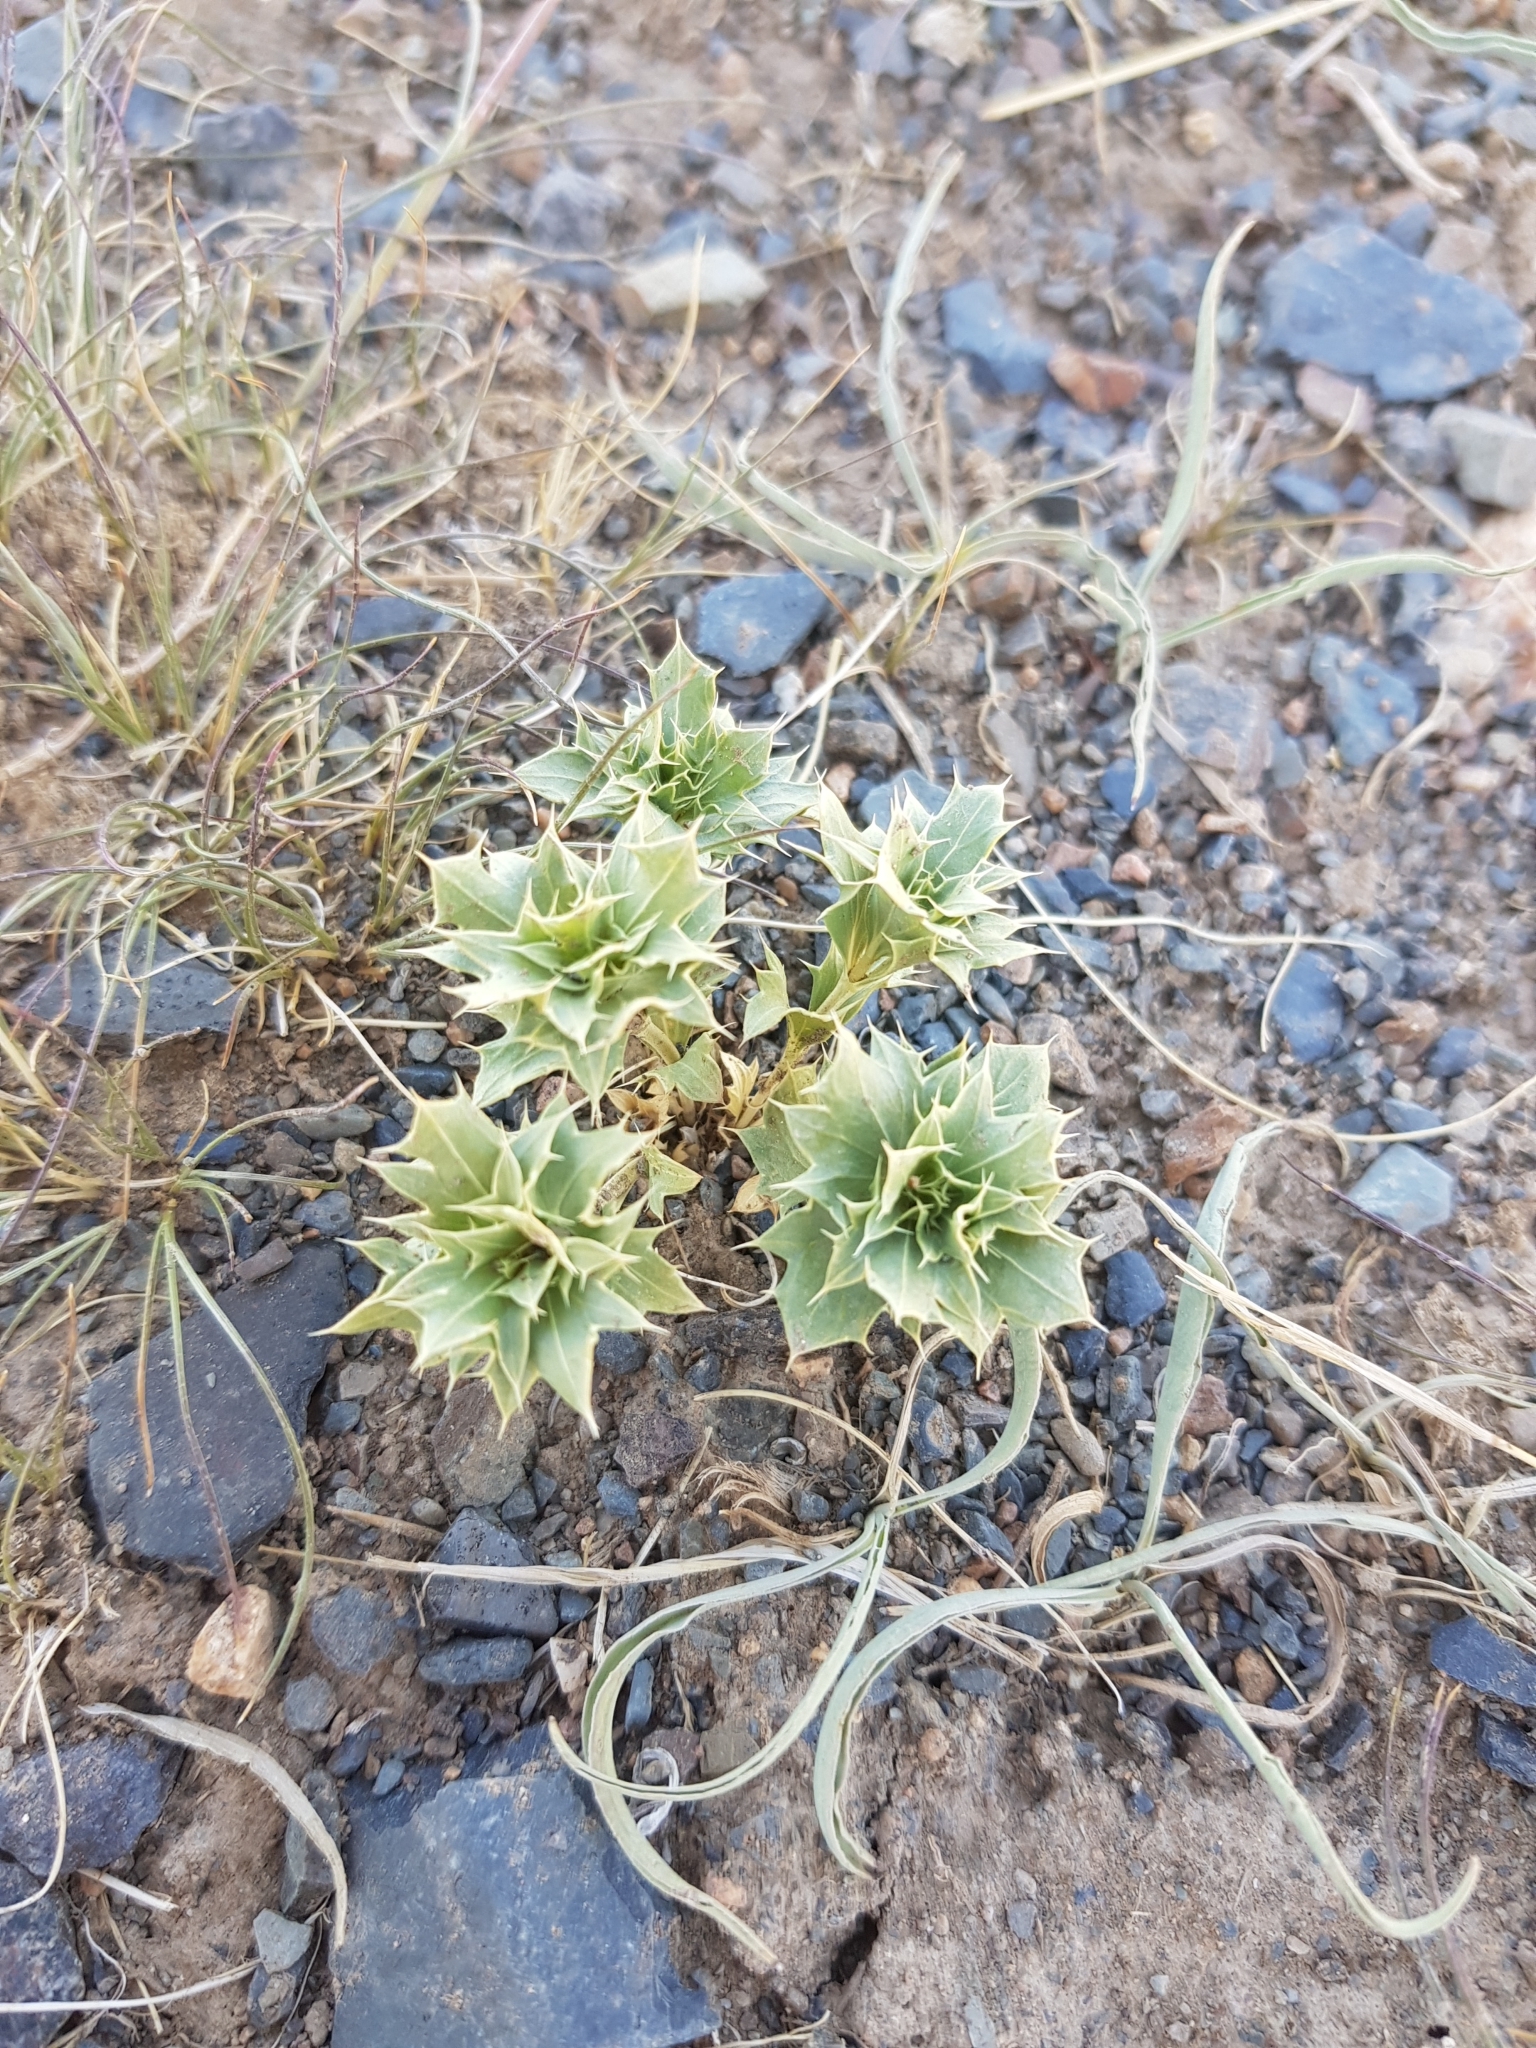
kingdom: Plantae
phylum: Tracheophyta
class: Magnoliopsida
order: Lamiales
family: Lamiaceae
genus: Lagochilus
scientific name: Lagochilus ilicifolius
